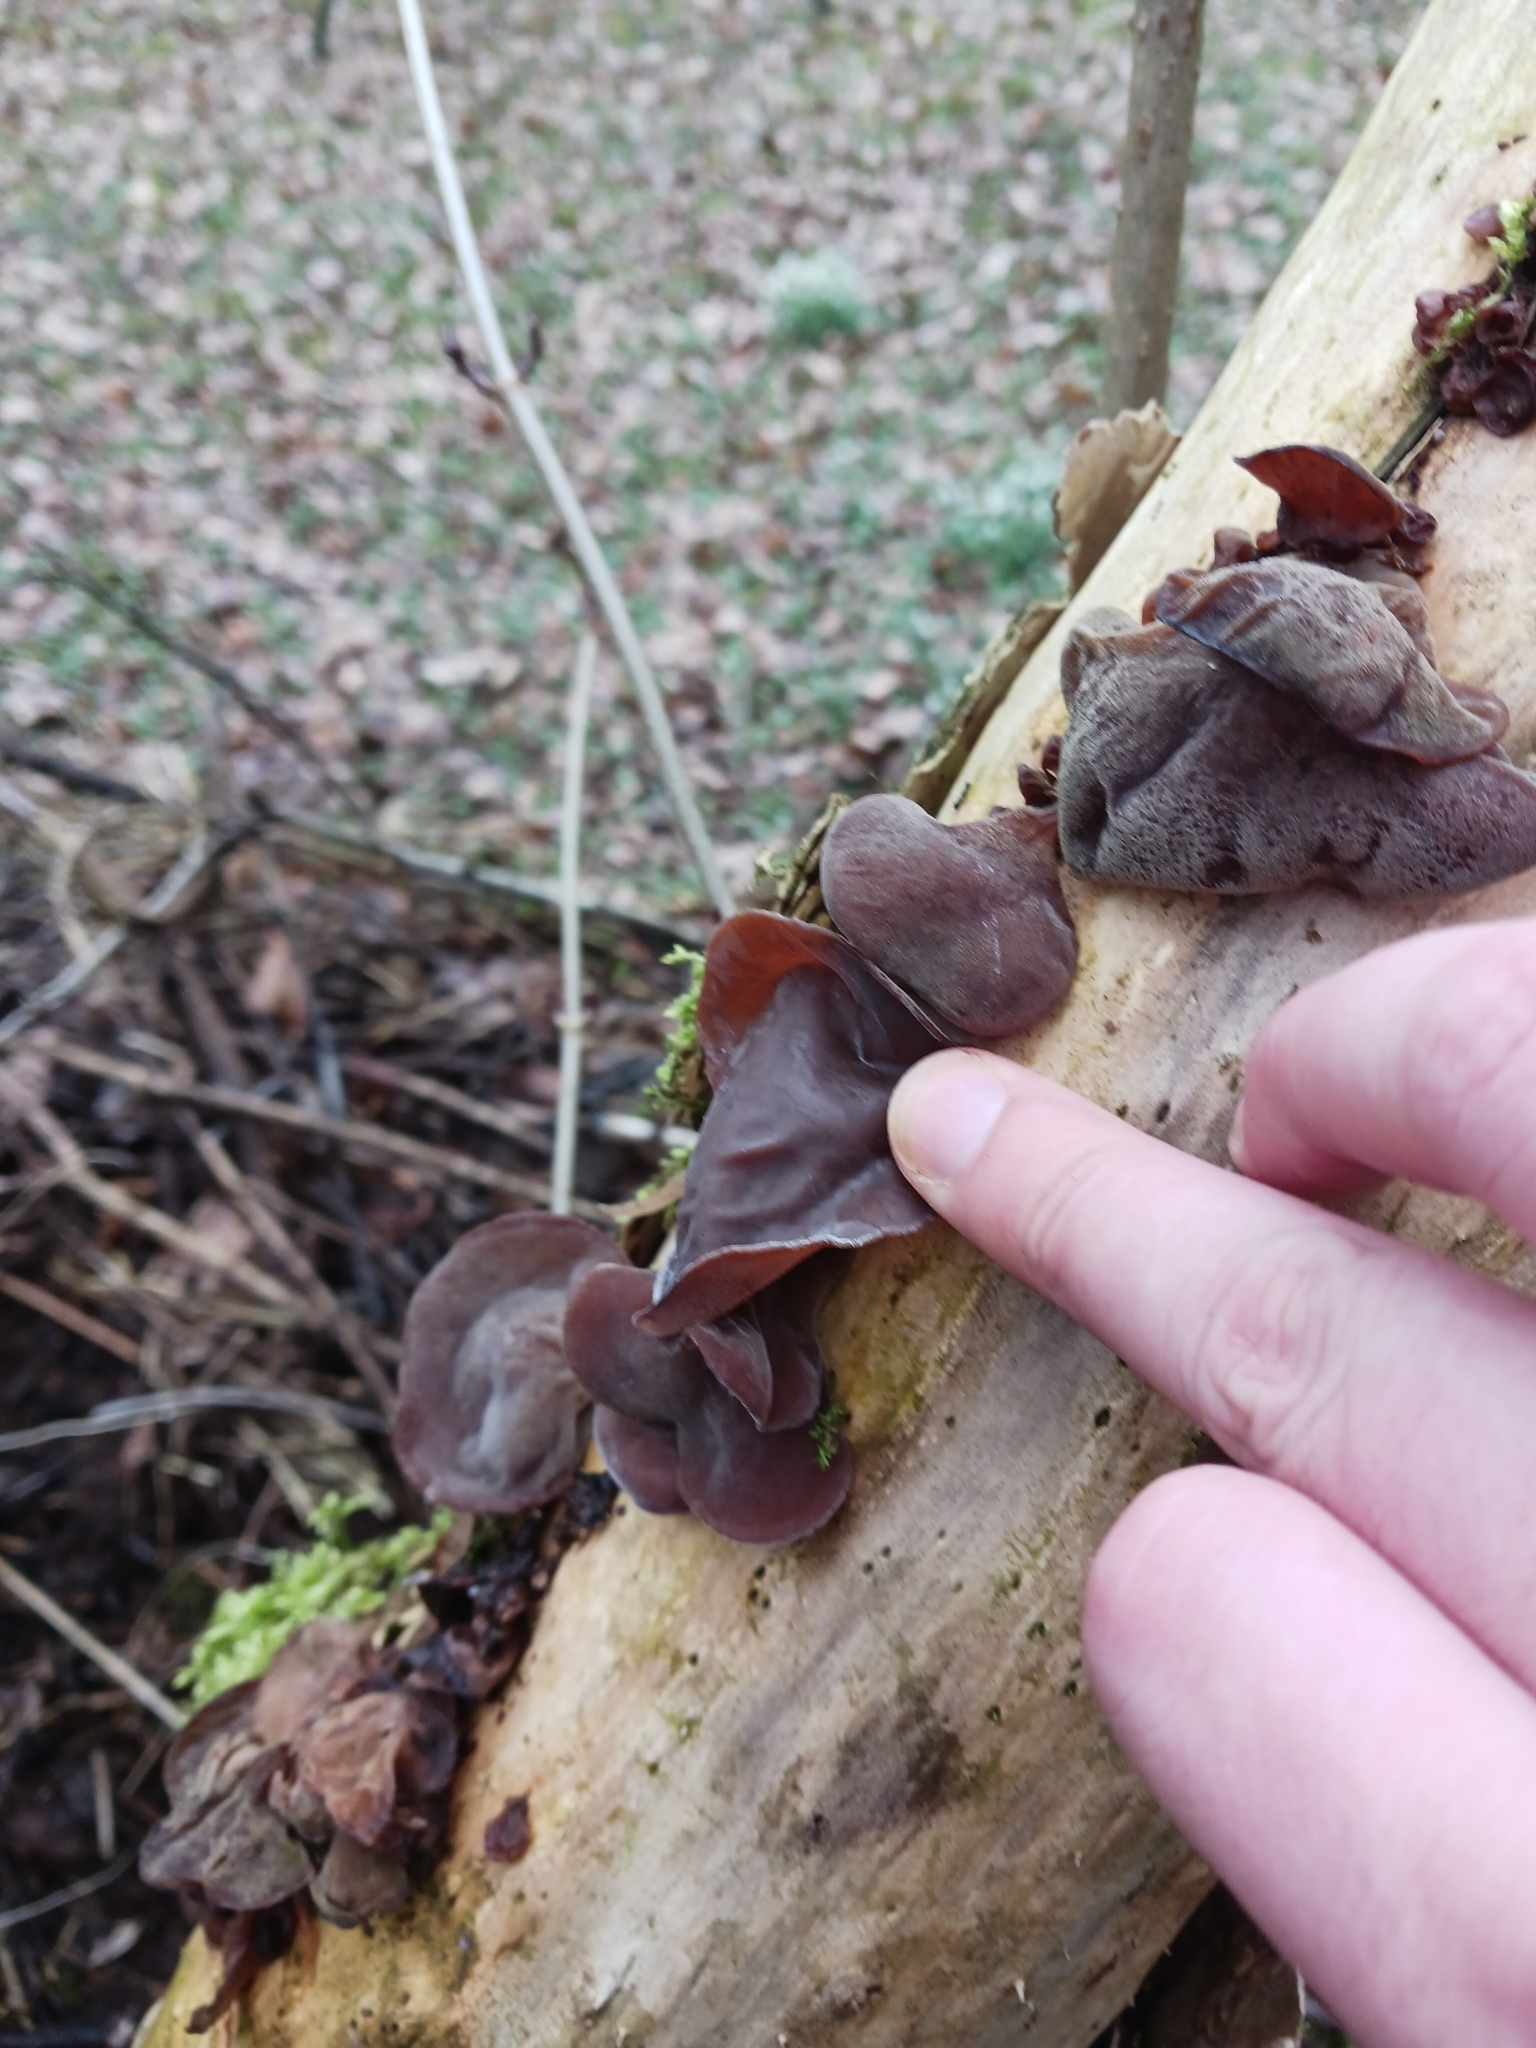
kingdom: Fungi
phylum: Basidiomycota
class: Agaricomycetes
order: Auriculariales
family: Auriculariaceae
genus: Auricularia
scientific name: Auricularia auricula-judae
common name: Jelly ear
